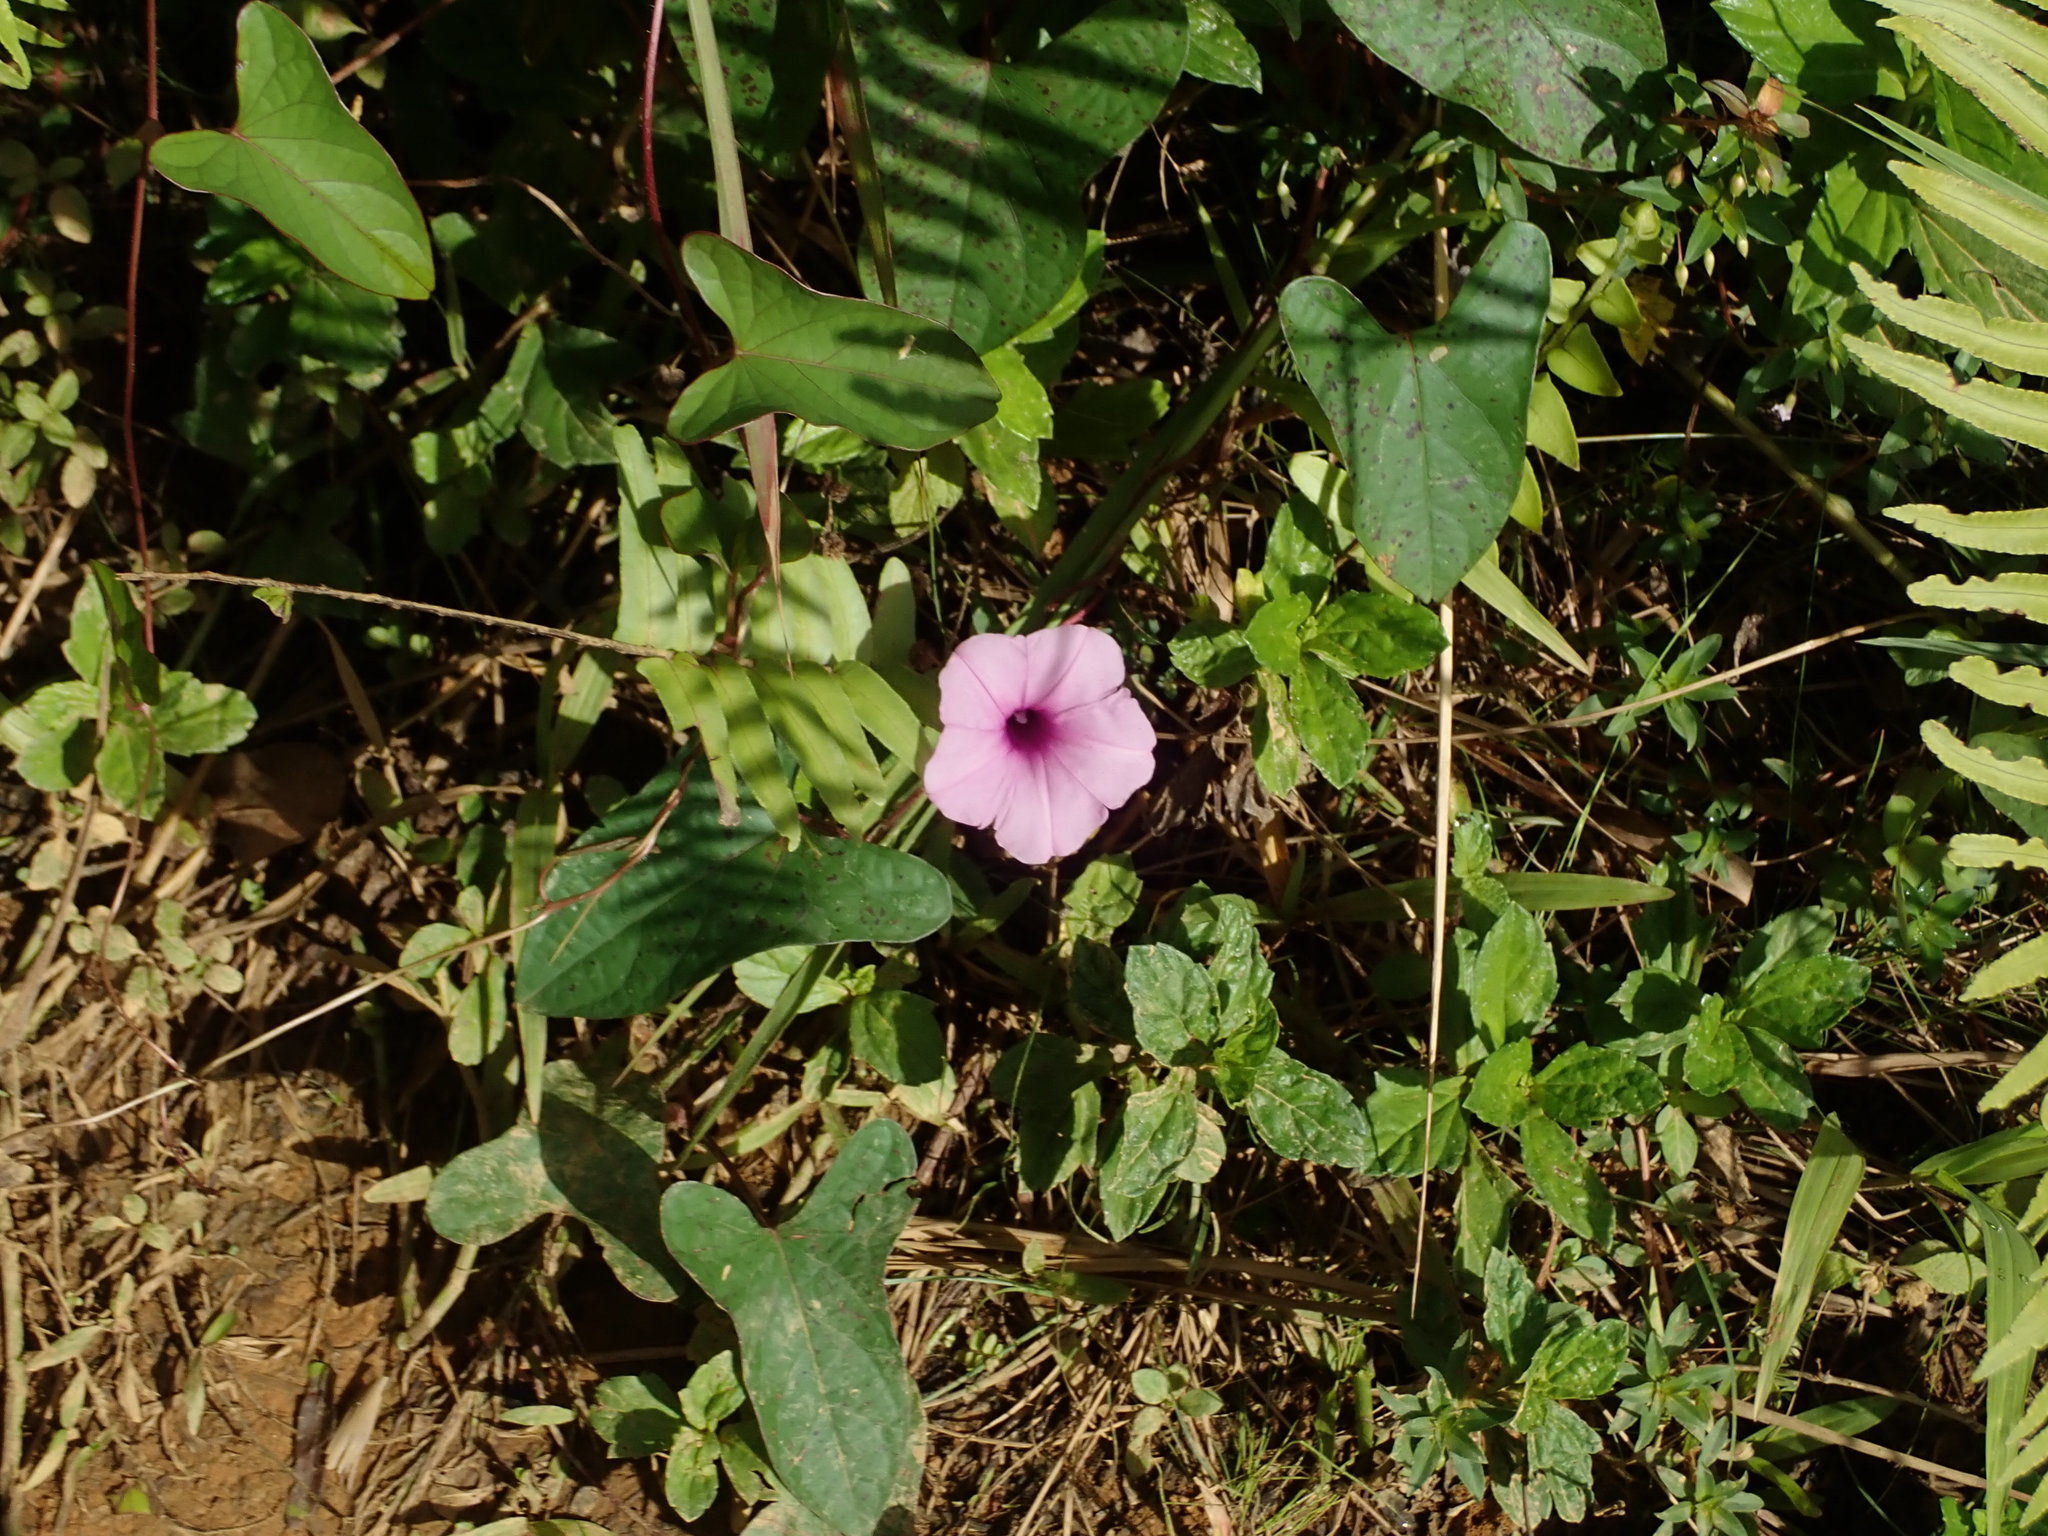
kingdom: Plantae
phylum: Tracheophyta
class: Magnoliopsida
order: Solanales
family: Convolvulaceae
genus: Ipomoea
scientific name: Ipomoea setifera
